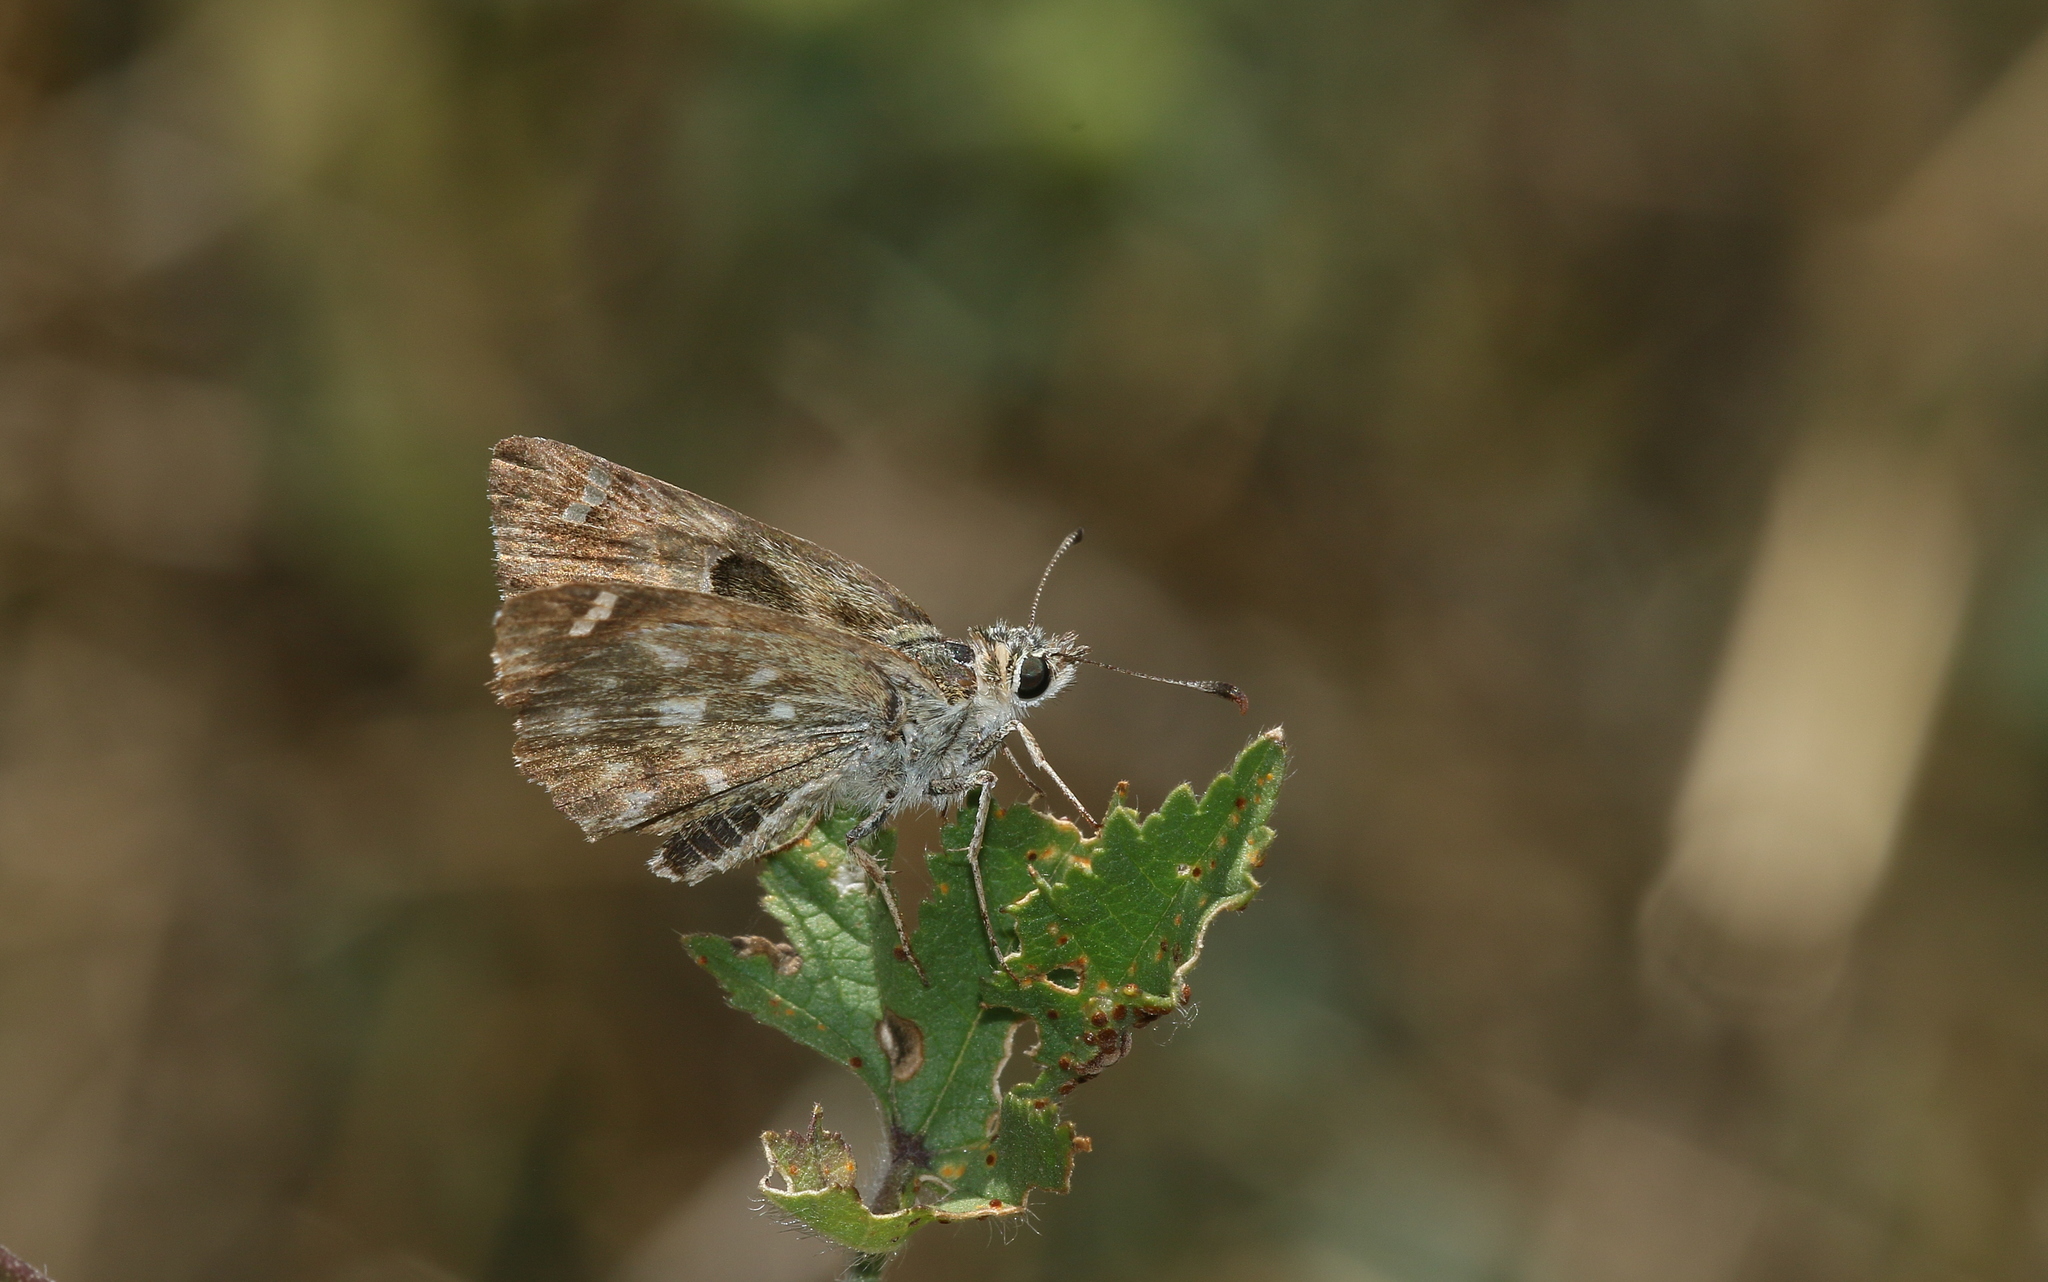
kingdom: Animalia
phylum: Arthropoda
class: Insecta
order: Lepidoptera
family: Hesperiidae
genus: Carcharodus
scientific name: Carcharodus alceae
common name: Mallow skipper
